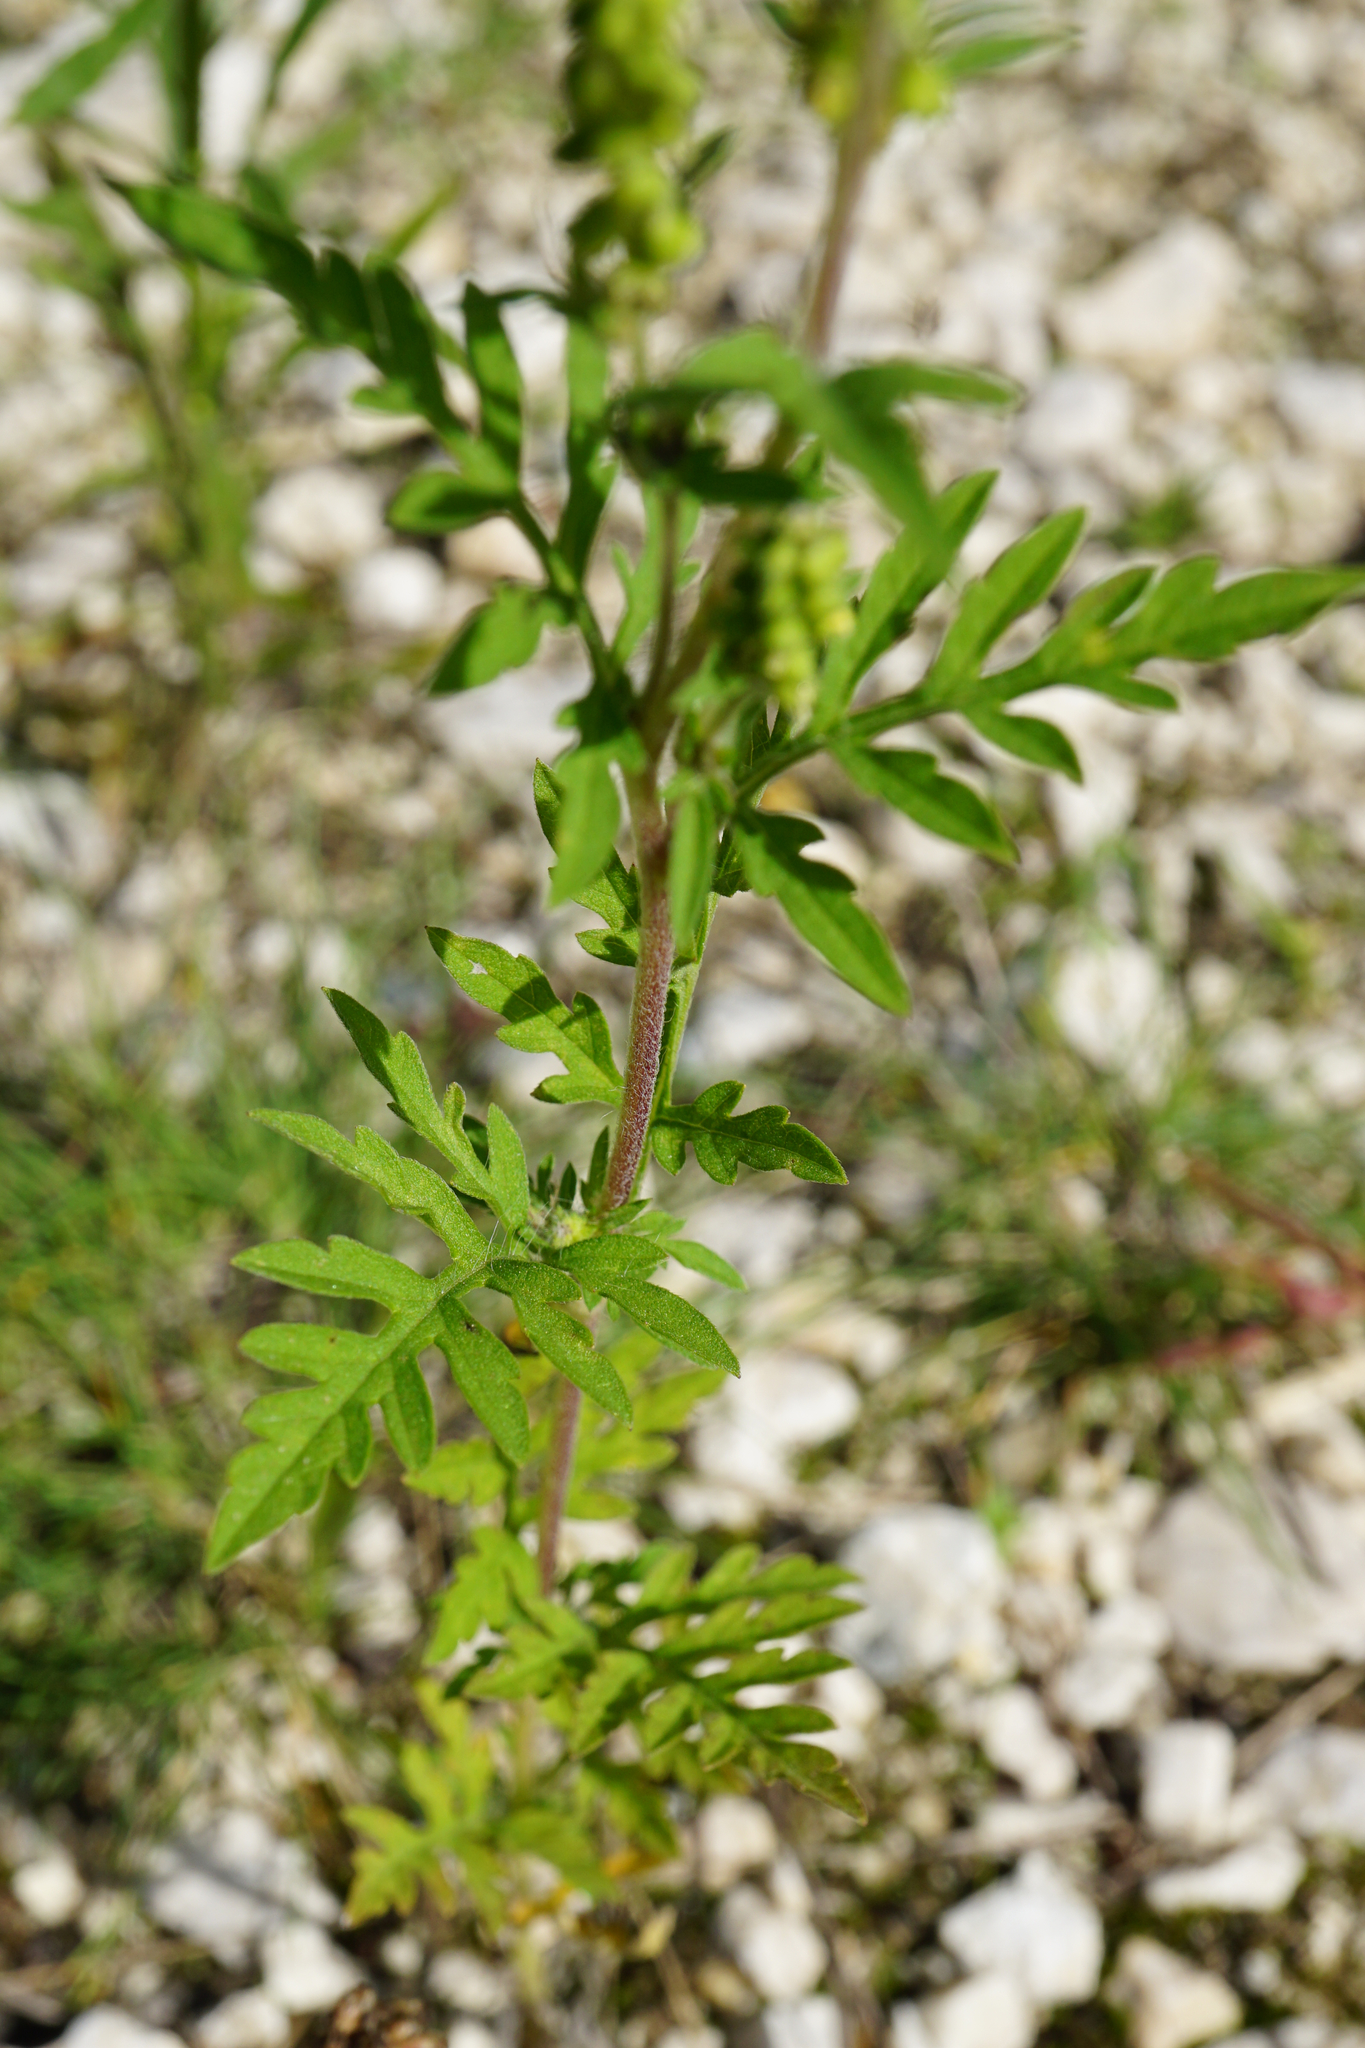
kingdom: Plantae
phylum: Tracheophyta
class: Magnoliopsida
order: Asterales
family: Asteraceae
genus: Ambrosia
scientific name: Ambrosia artemisiifolia
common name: Annual ragweed
